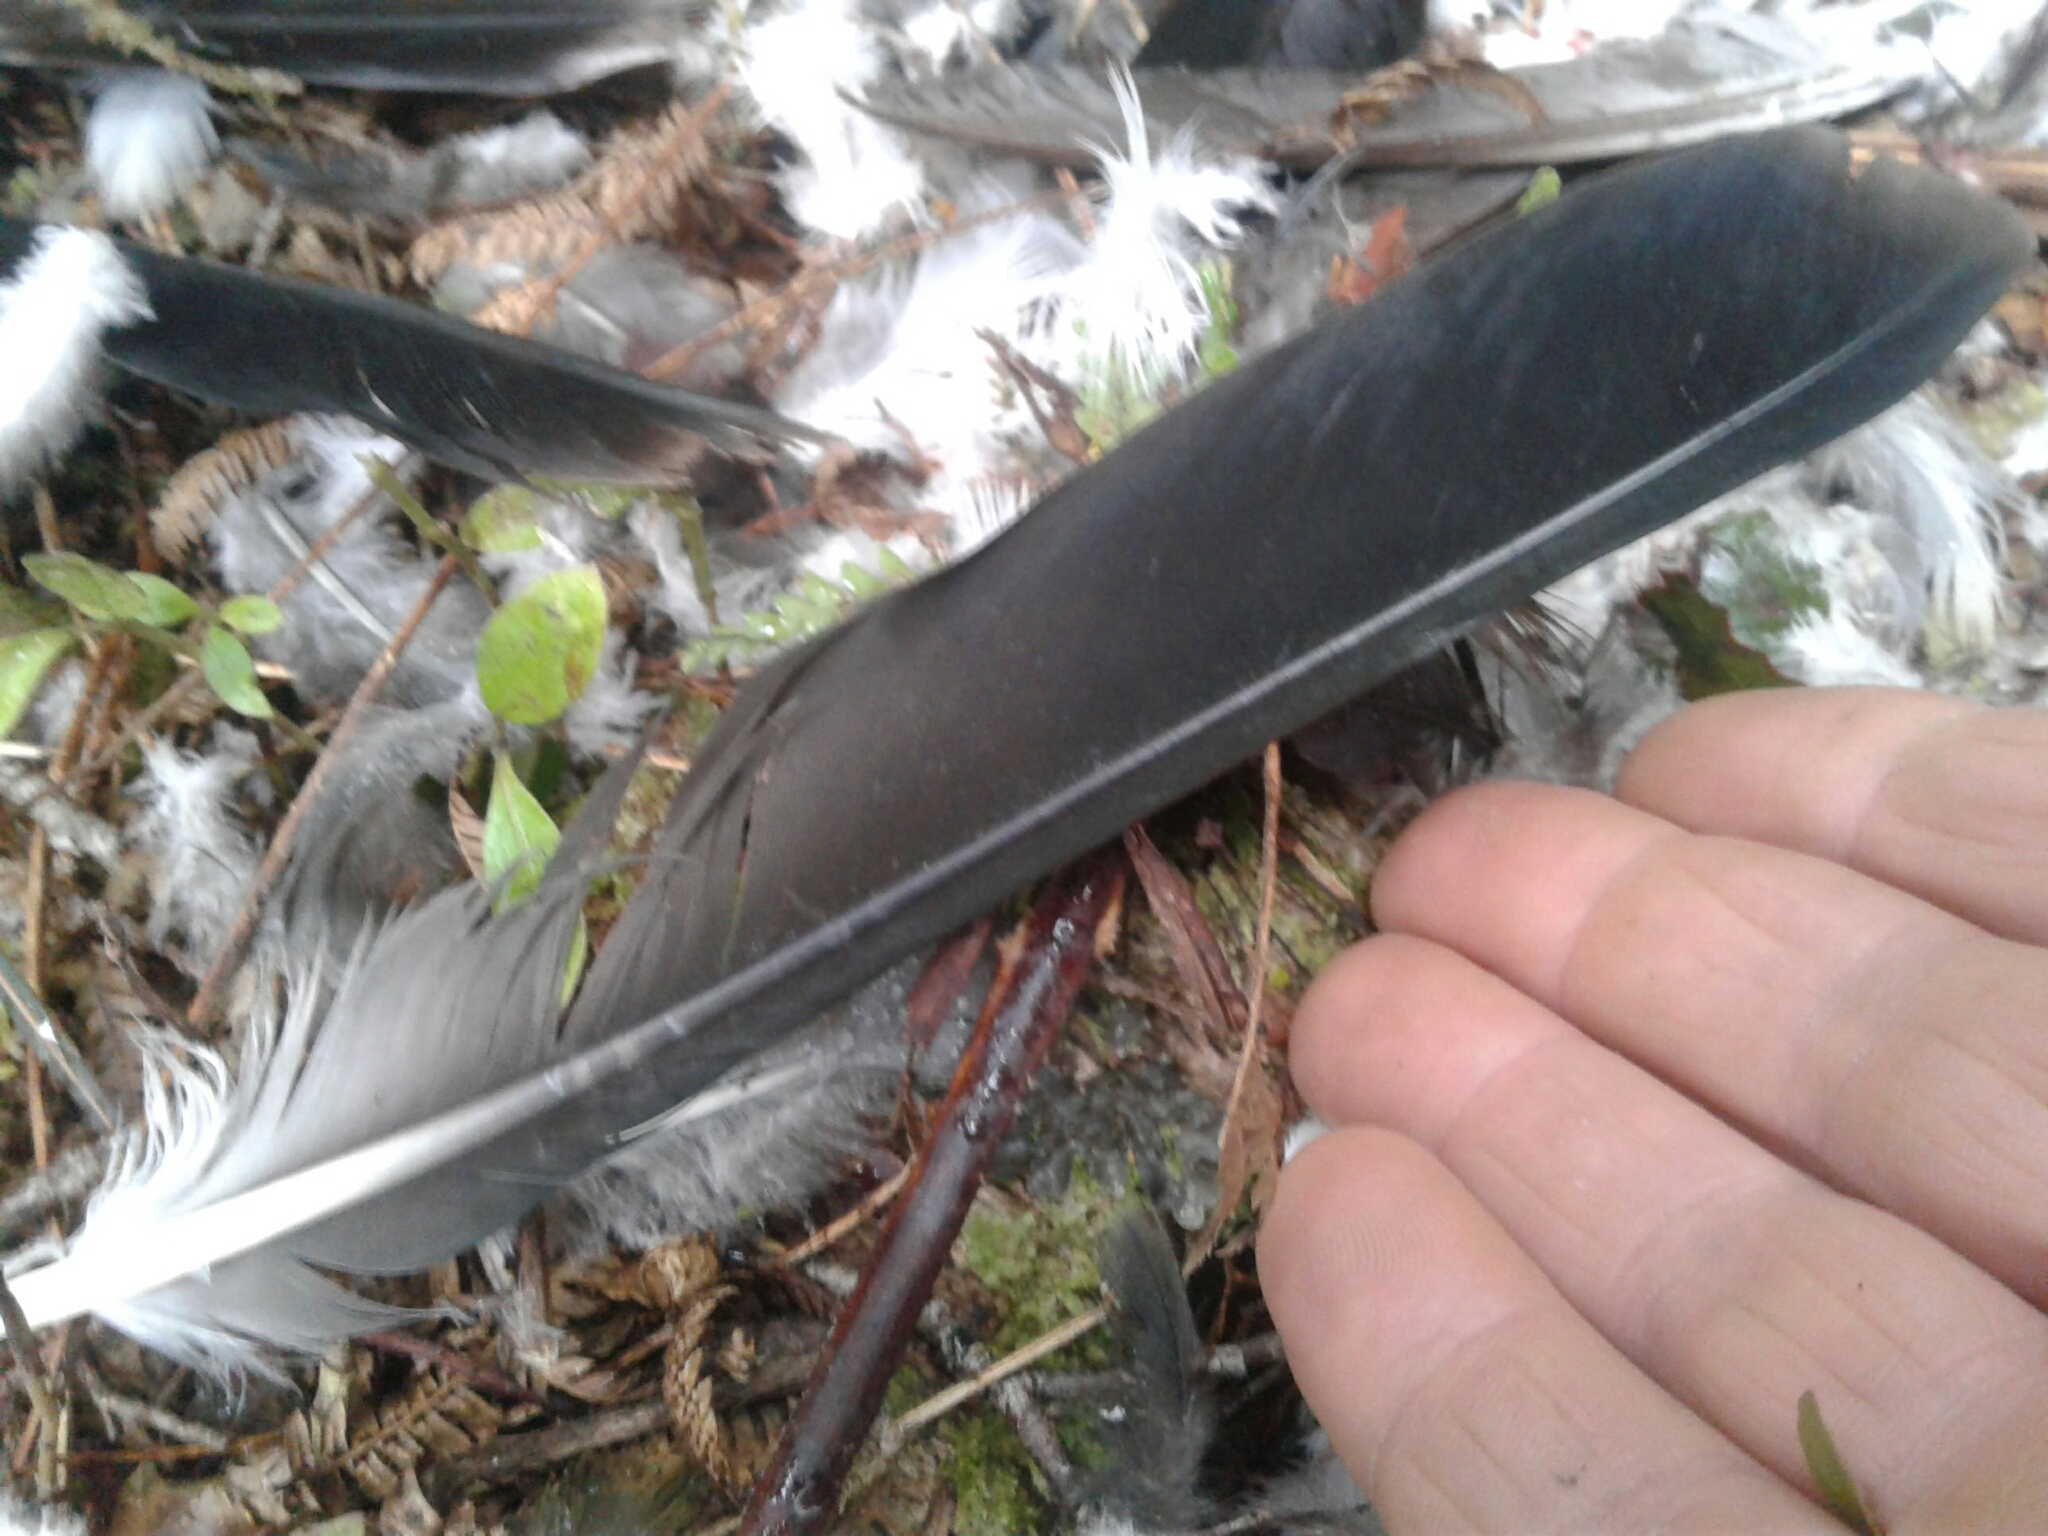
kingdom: Animalia
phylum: Chordata
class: Aves
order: Columbiformes
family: Columbidae
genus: Hemiphaga
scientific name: Hemiphaga novaeseelandiae
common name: New zealand pigeon
